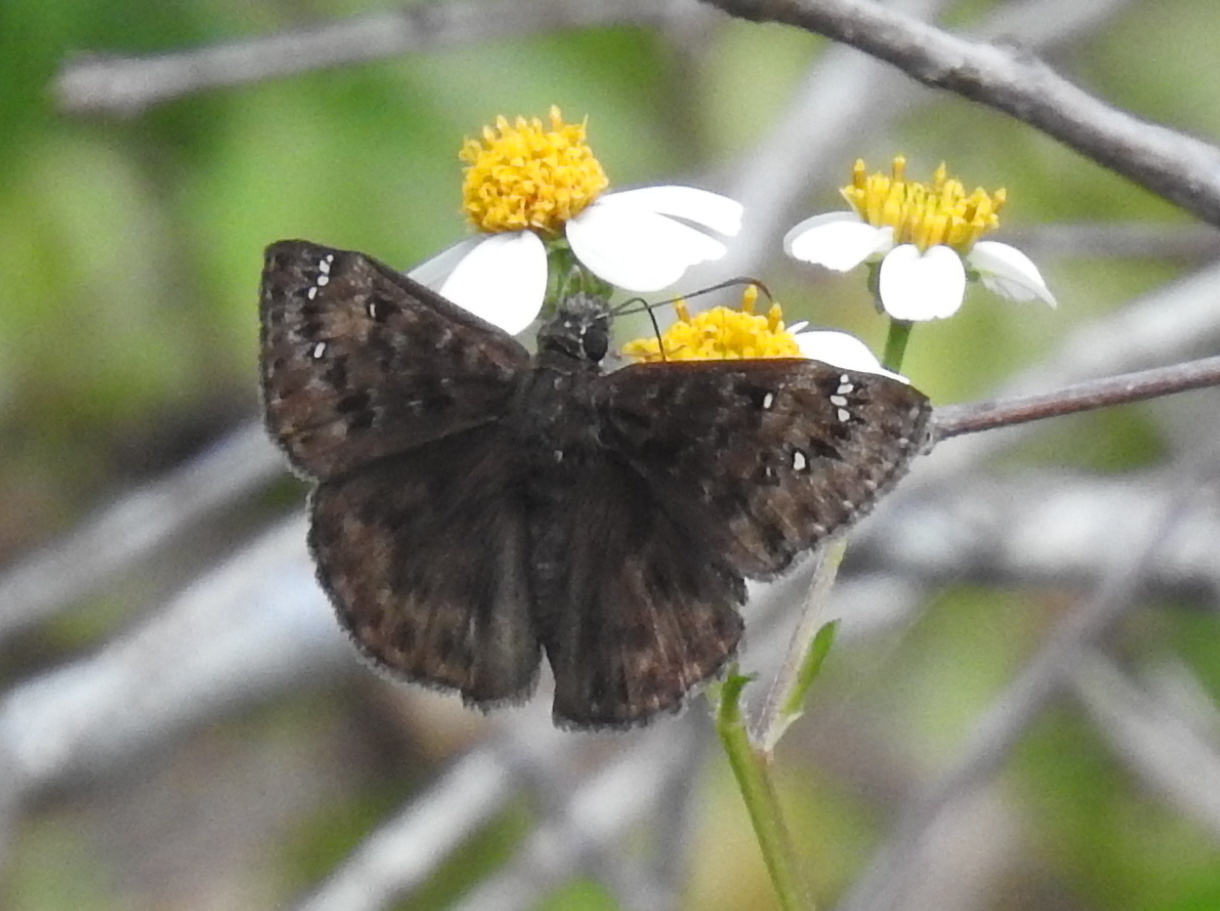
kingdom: Animalia
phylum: Arthropoda
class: Insecta
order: Lepidoptera
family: Hesperiidae
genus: Erynnis
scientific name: Erynnis horatius
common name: Horace's duskywing
